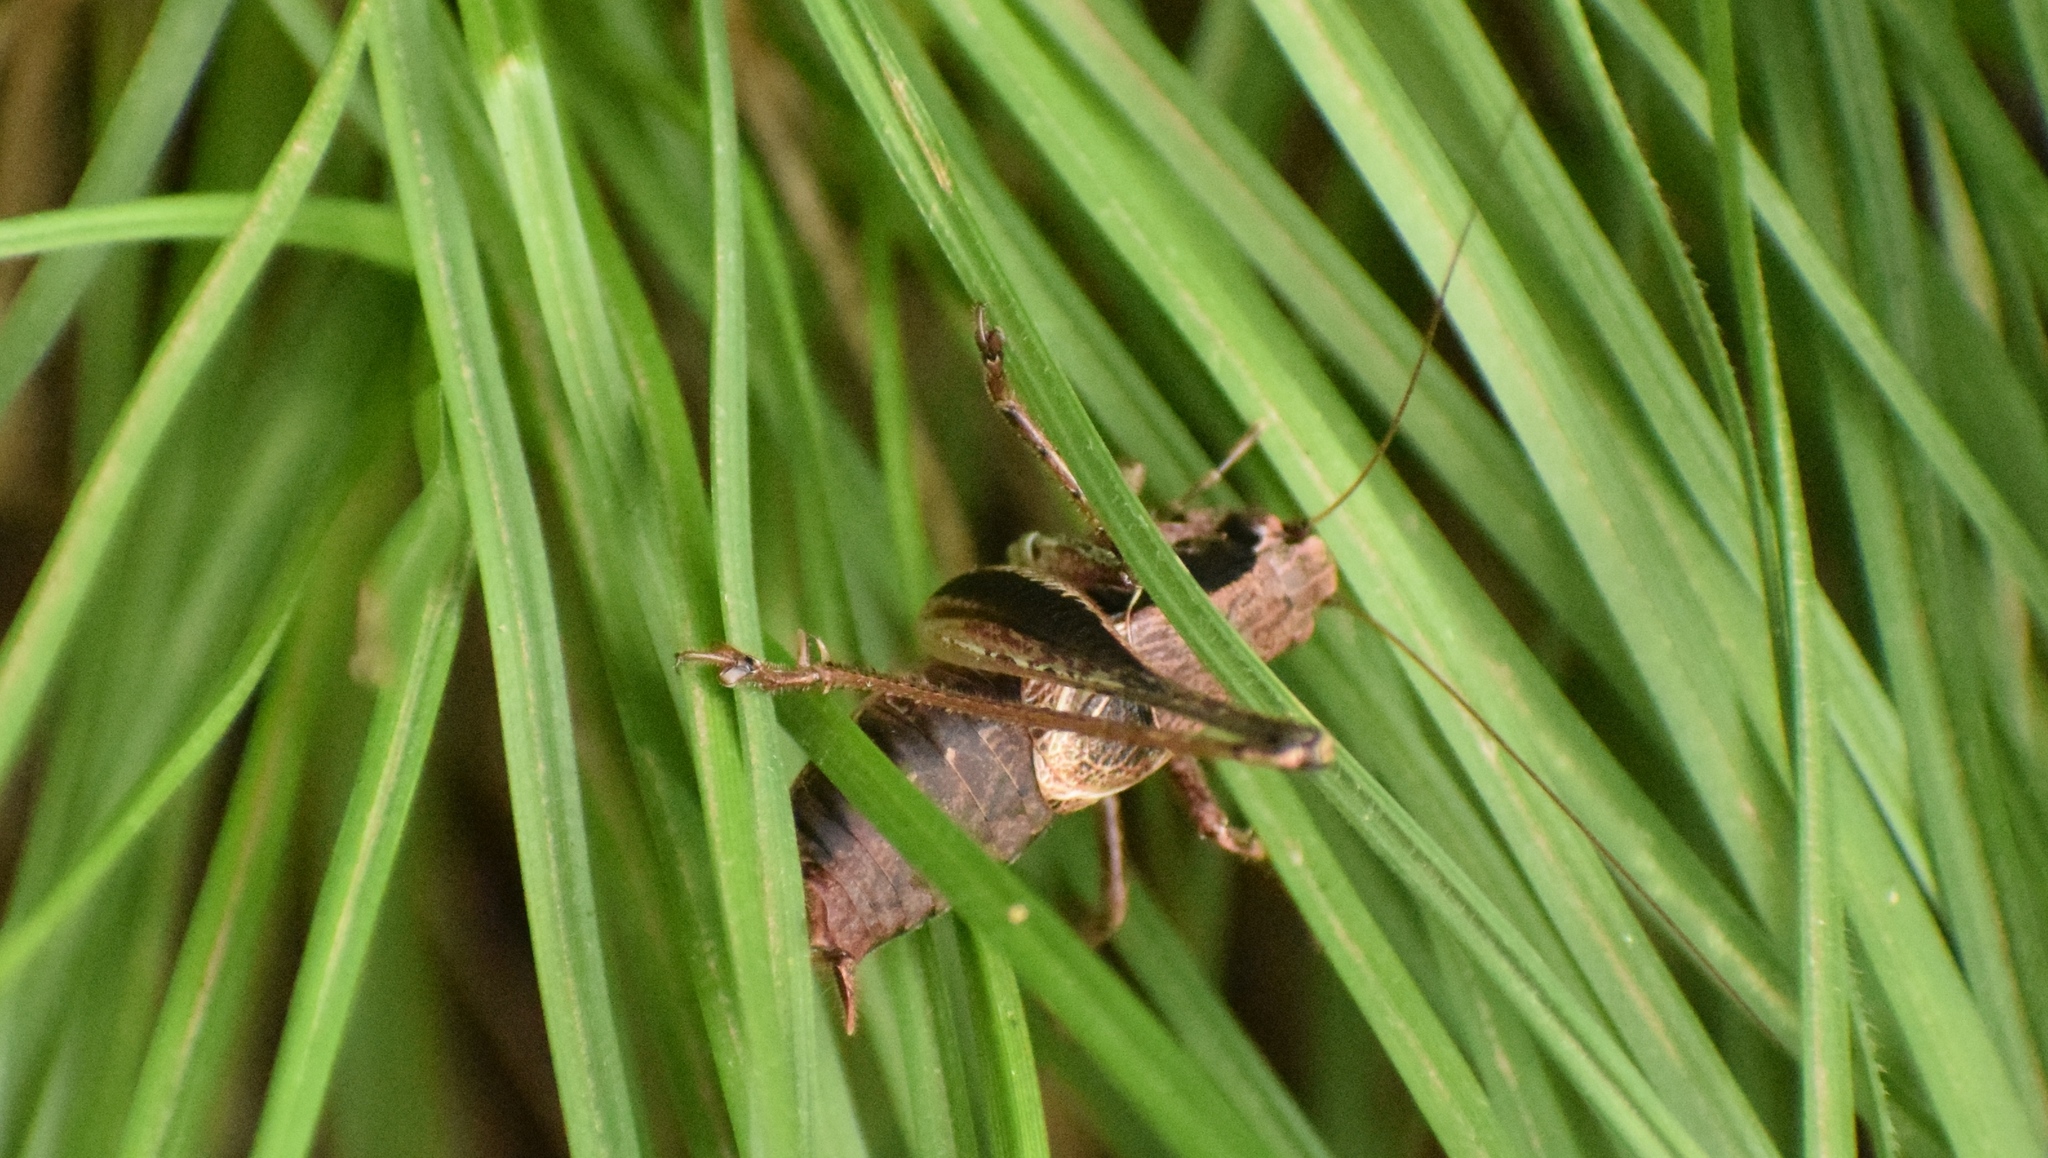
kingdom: Animalia
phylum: Arthropoda
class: Insecta
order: Orthoptera
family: Tettigoniidae
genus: Pholidoptera
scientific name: Pholidoptera griseoaptera
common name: Dark bush-cricket
